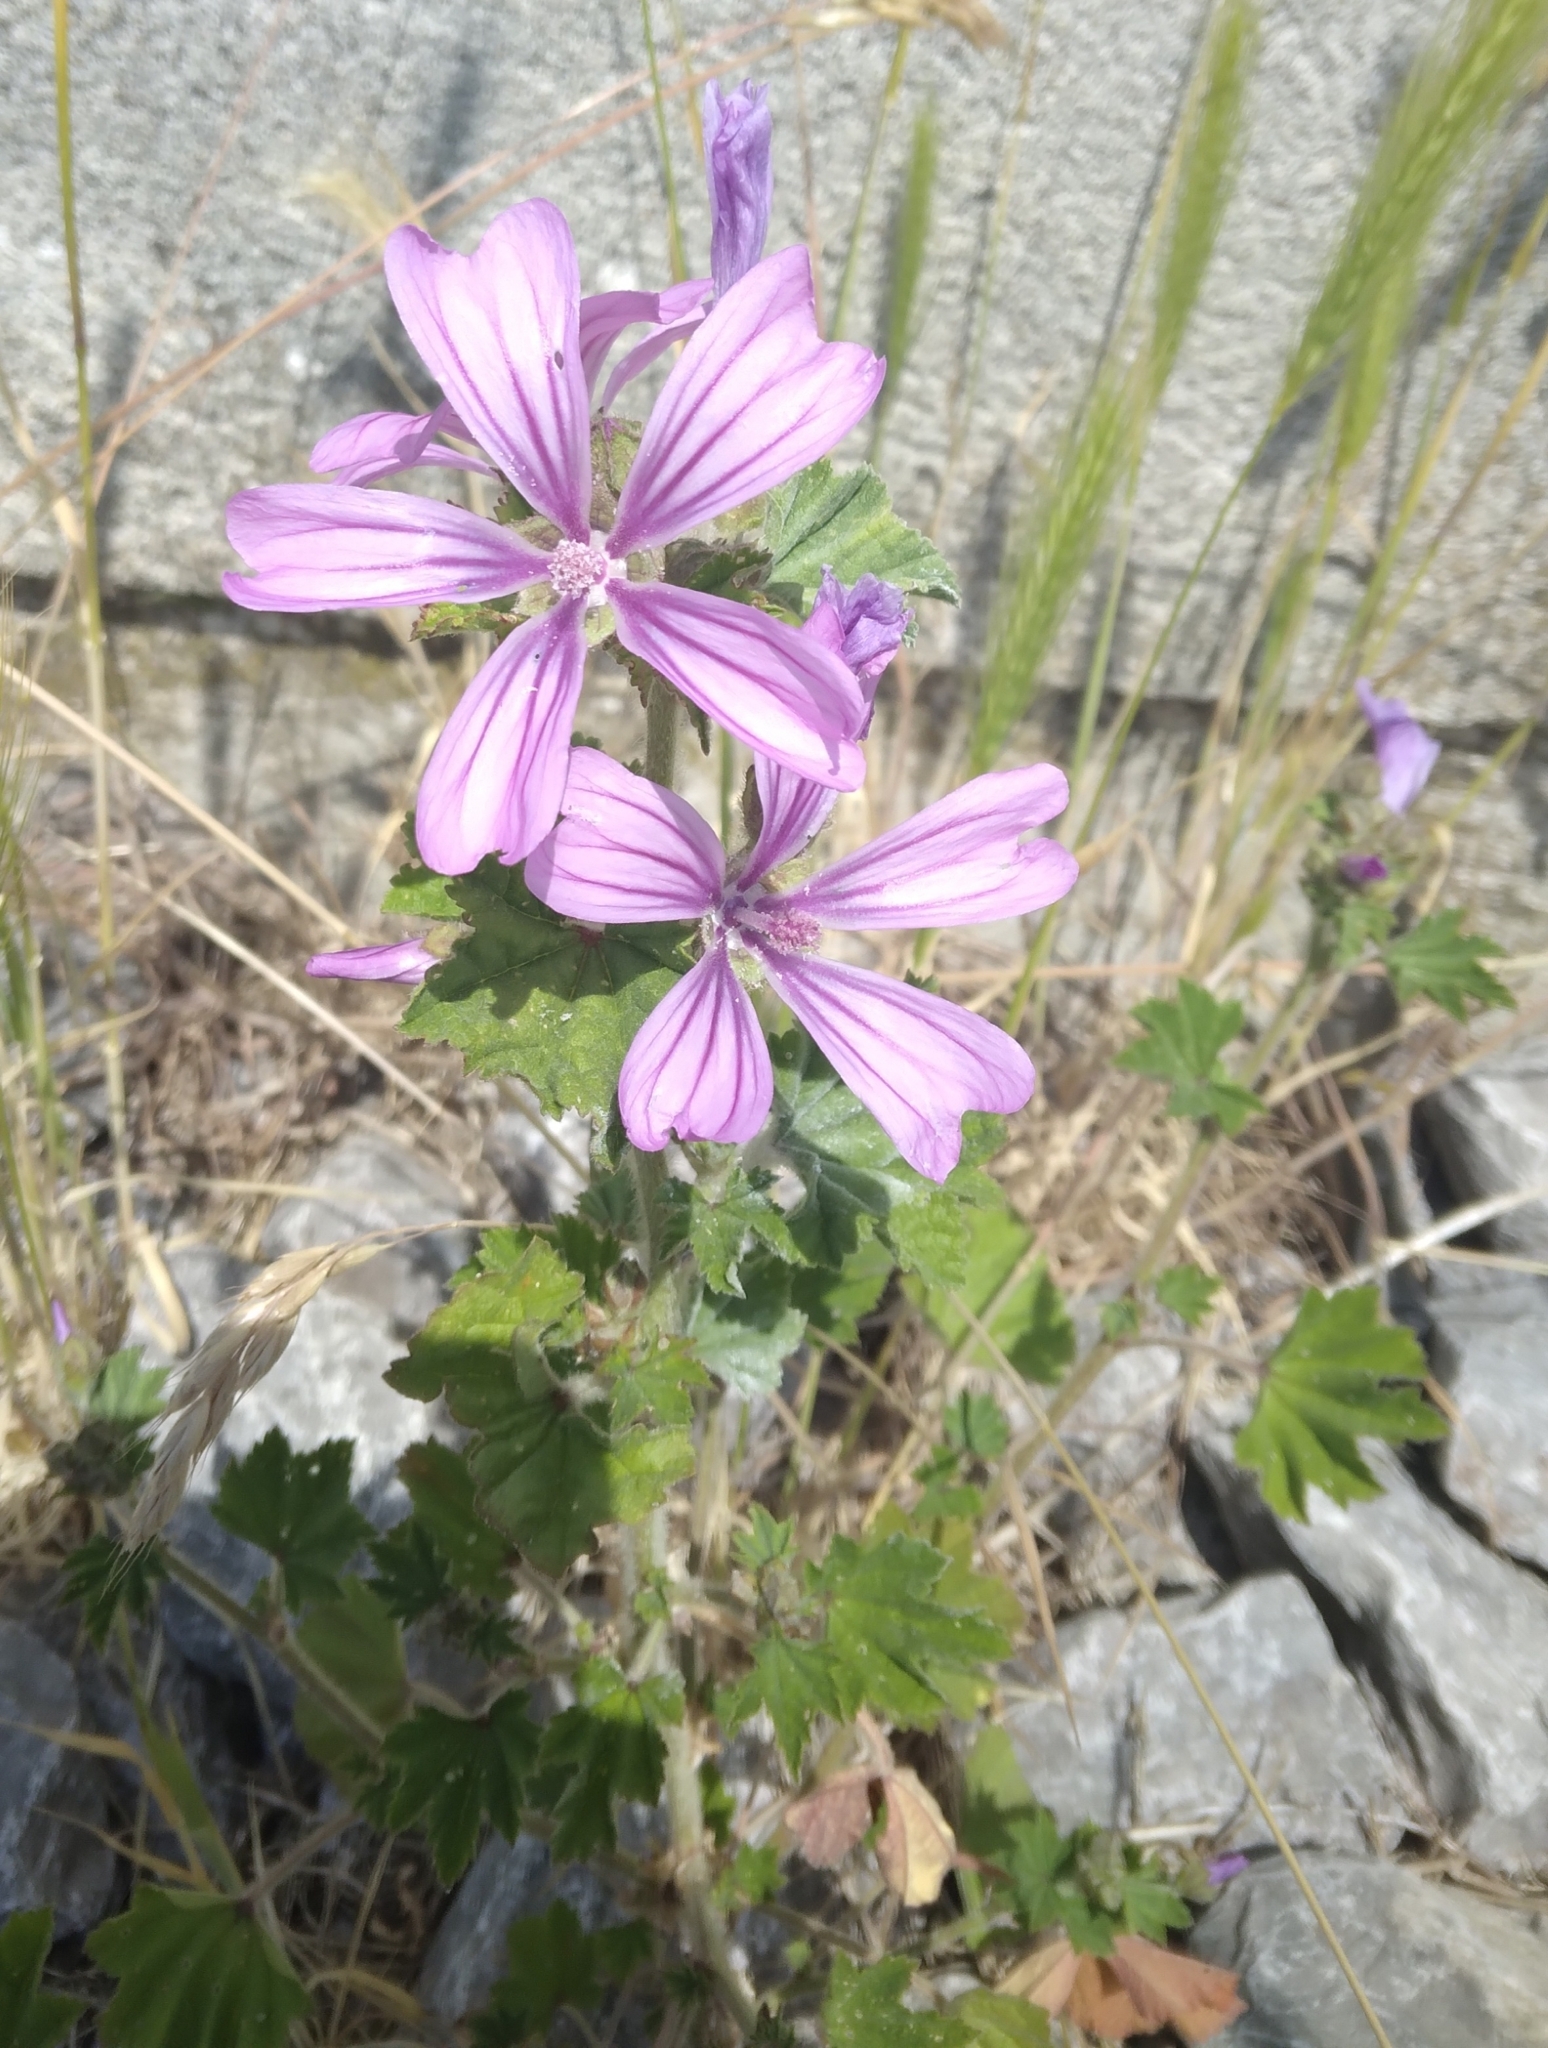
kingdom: Plantae
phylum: Tracheophyta
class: Magnoliopsida
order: Malvales
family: Malvaceae
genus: Malva
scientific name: Malva sylvestris
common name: Common mallow
